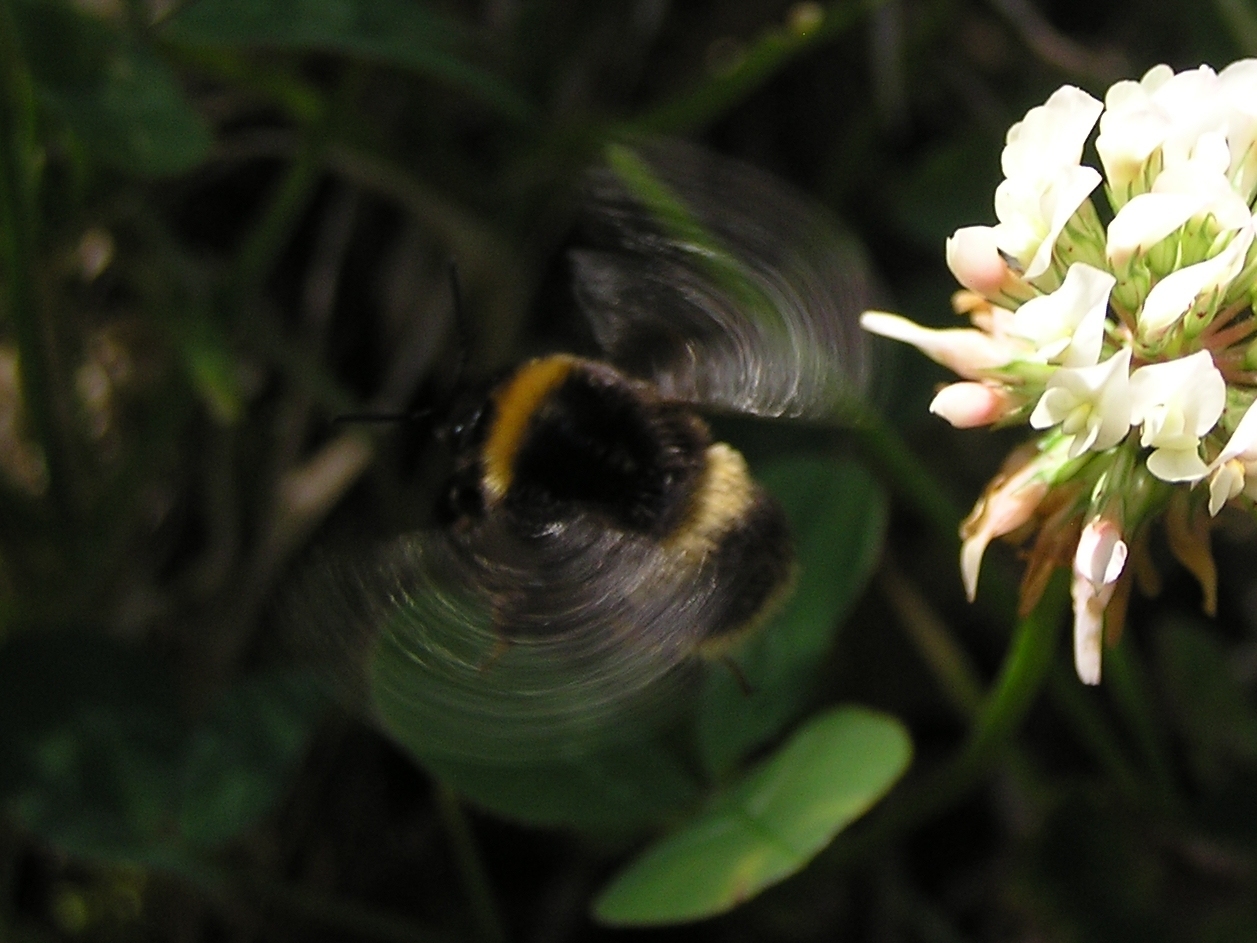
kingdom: Animalia
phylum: Arthropoda
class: Insecta
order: Hymenoptera
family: Apidae
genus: Bombus
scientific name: Bombus terrestris
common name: Buff-tailed bumblebee
